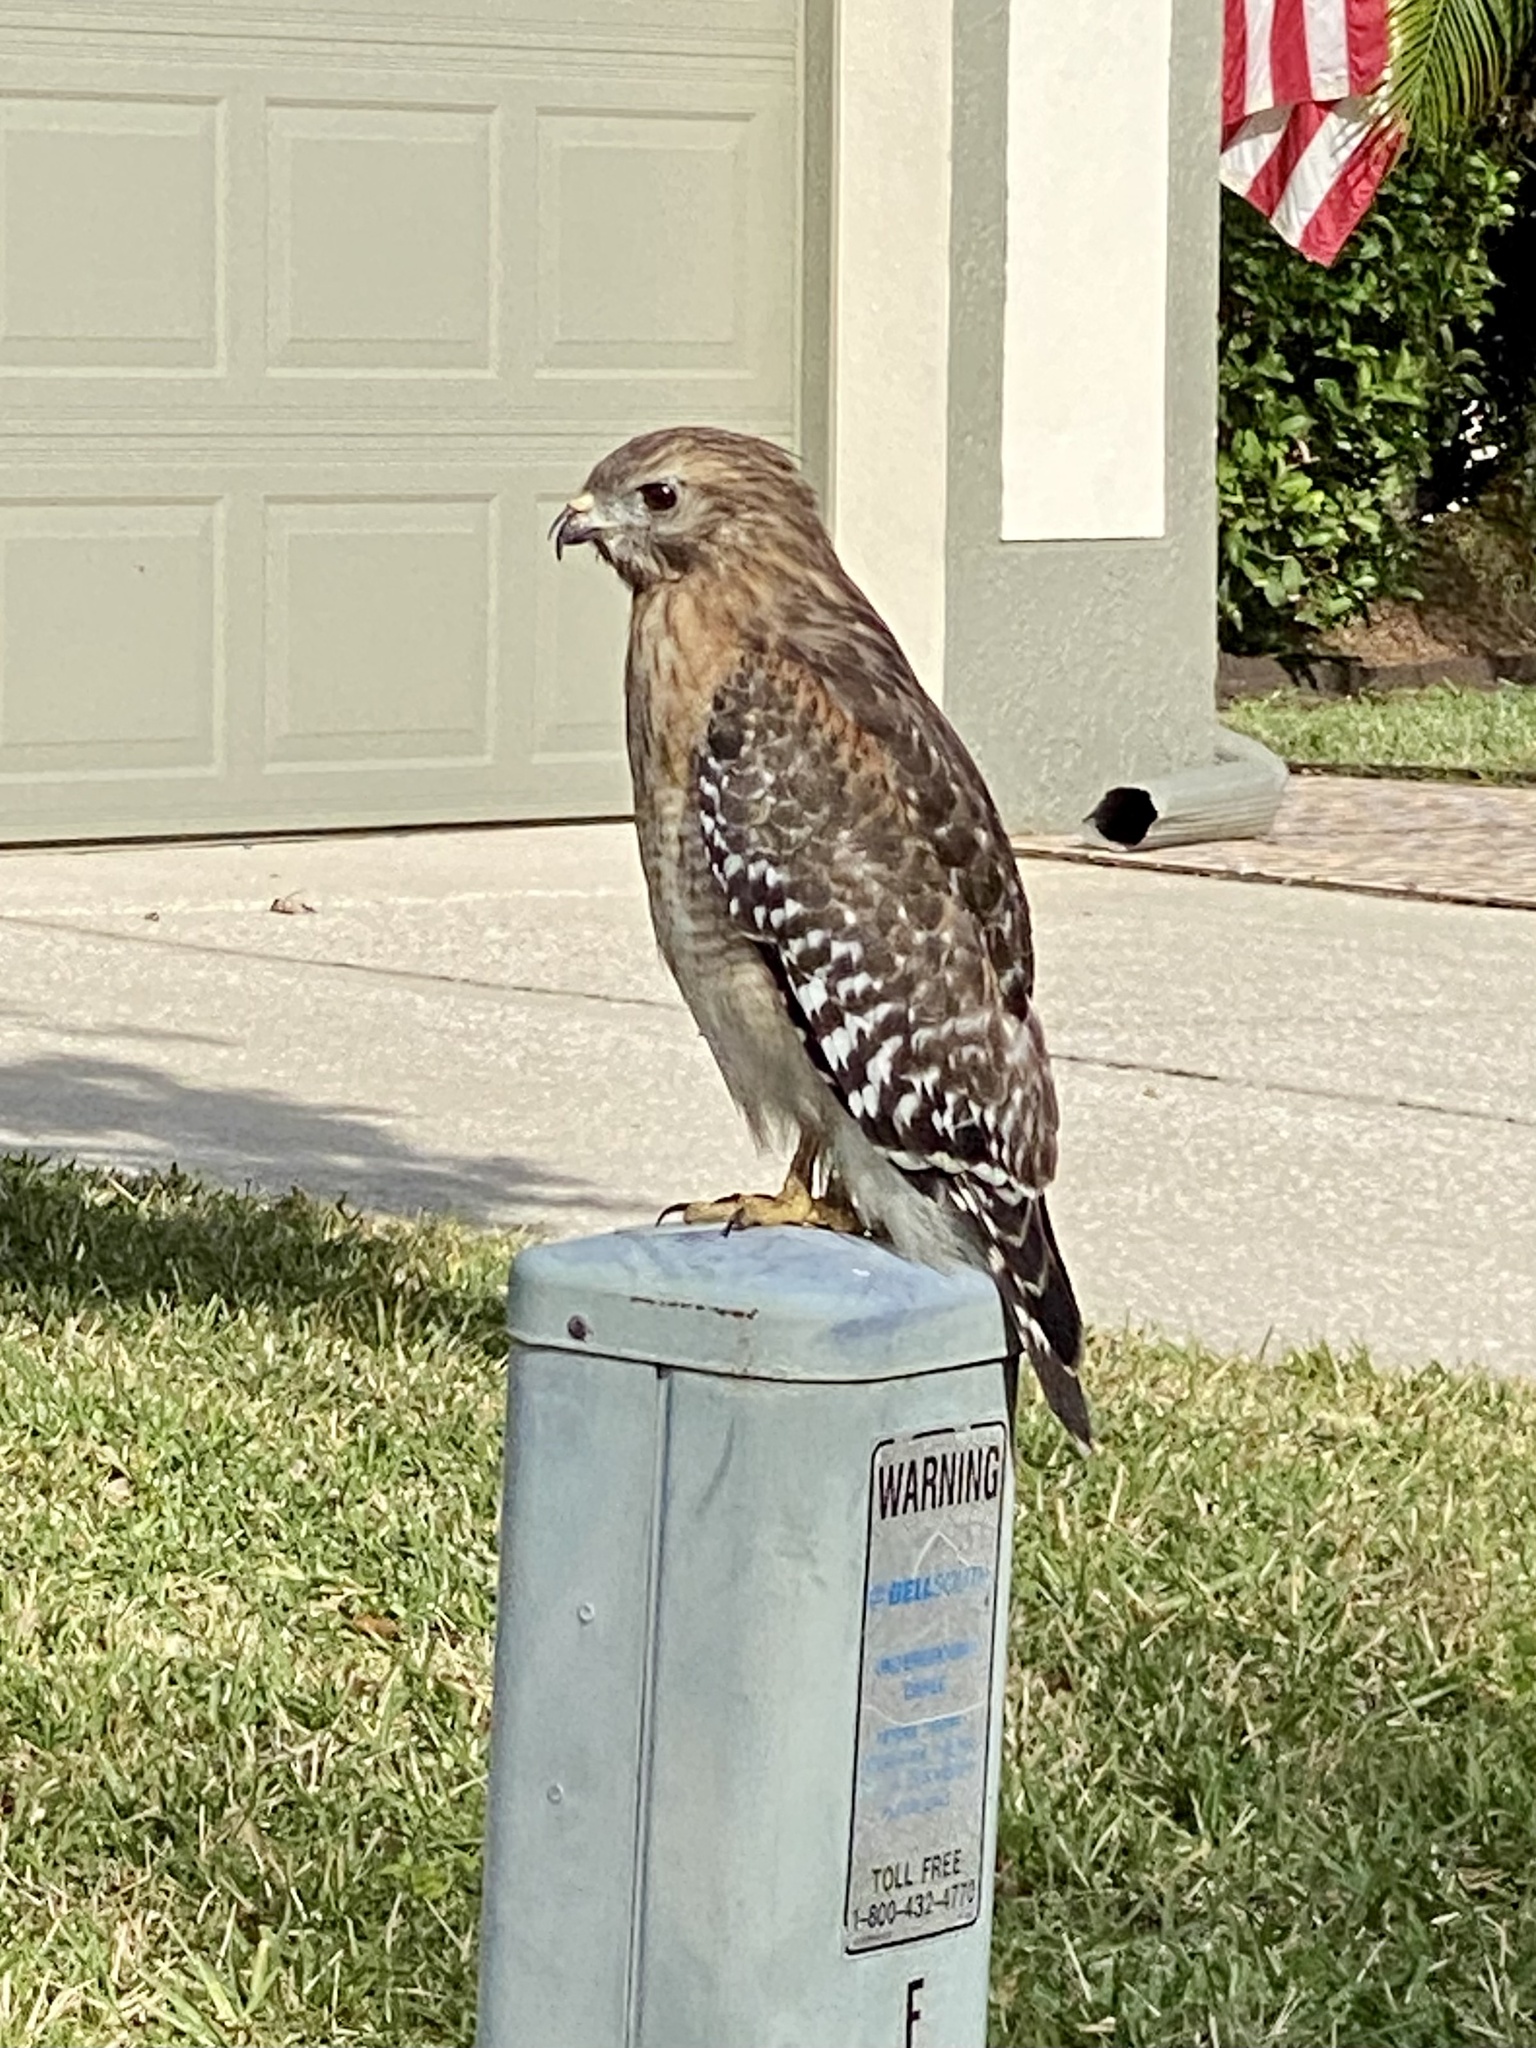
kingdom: Animalia
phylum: Chordata
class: Aves
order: Accipitriformes
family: Accipitridae
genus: Buteo
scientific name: Buteo lineatus
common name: Red-shouldered hawk
